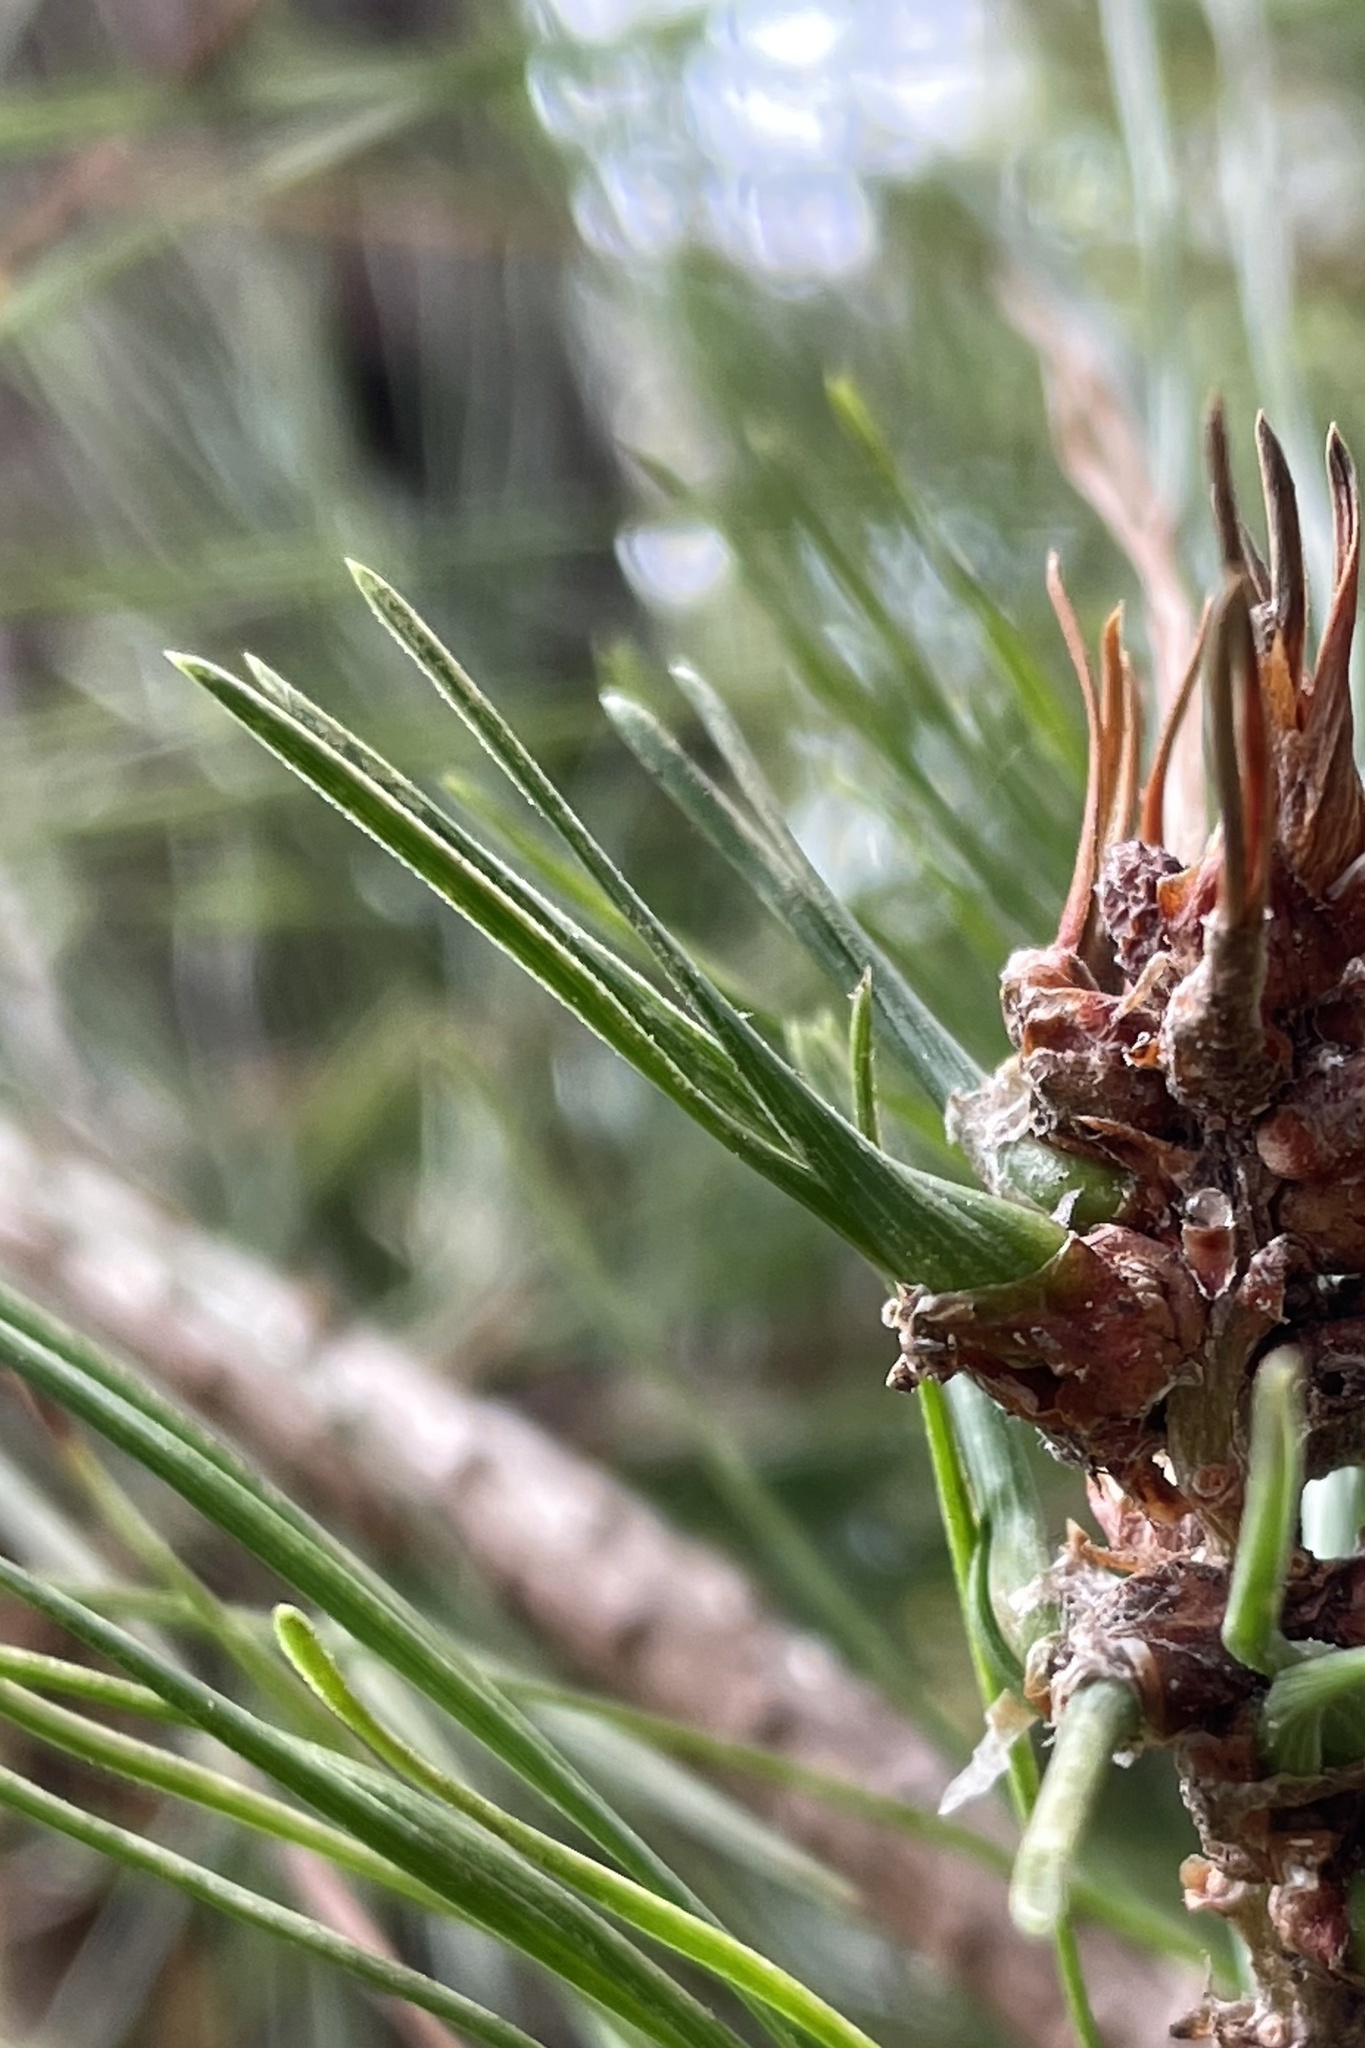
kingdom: Animalia
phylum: Arthropoda
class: Insecta
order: Diptera
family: Cecidomyiidae
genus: Thecodiplosis
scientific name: Thecodiplosis piniradiatae
